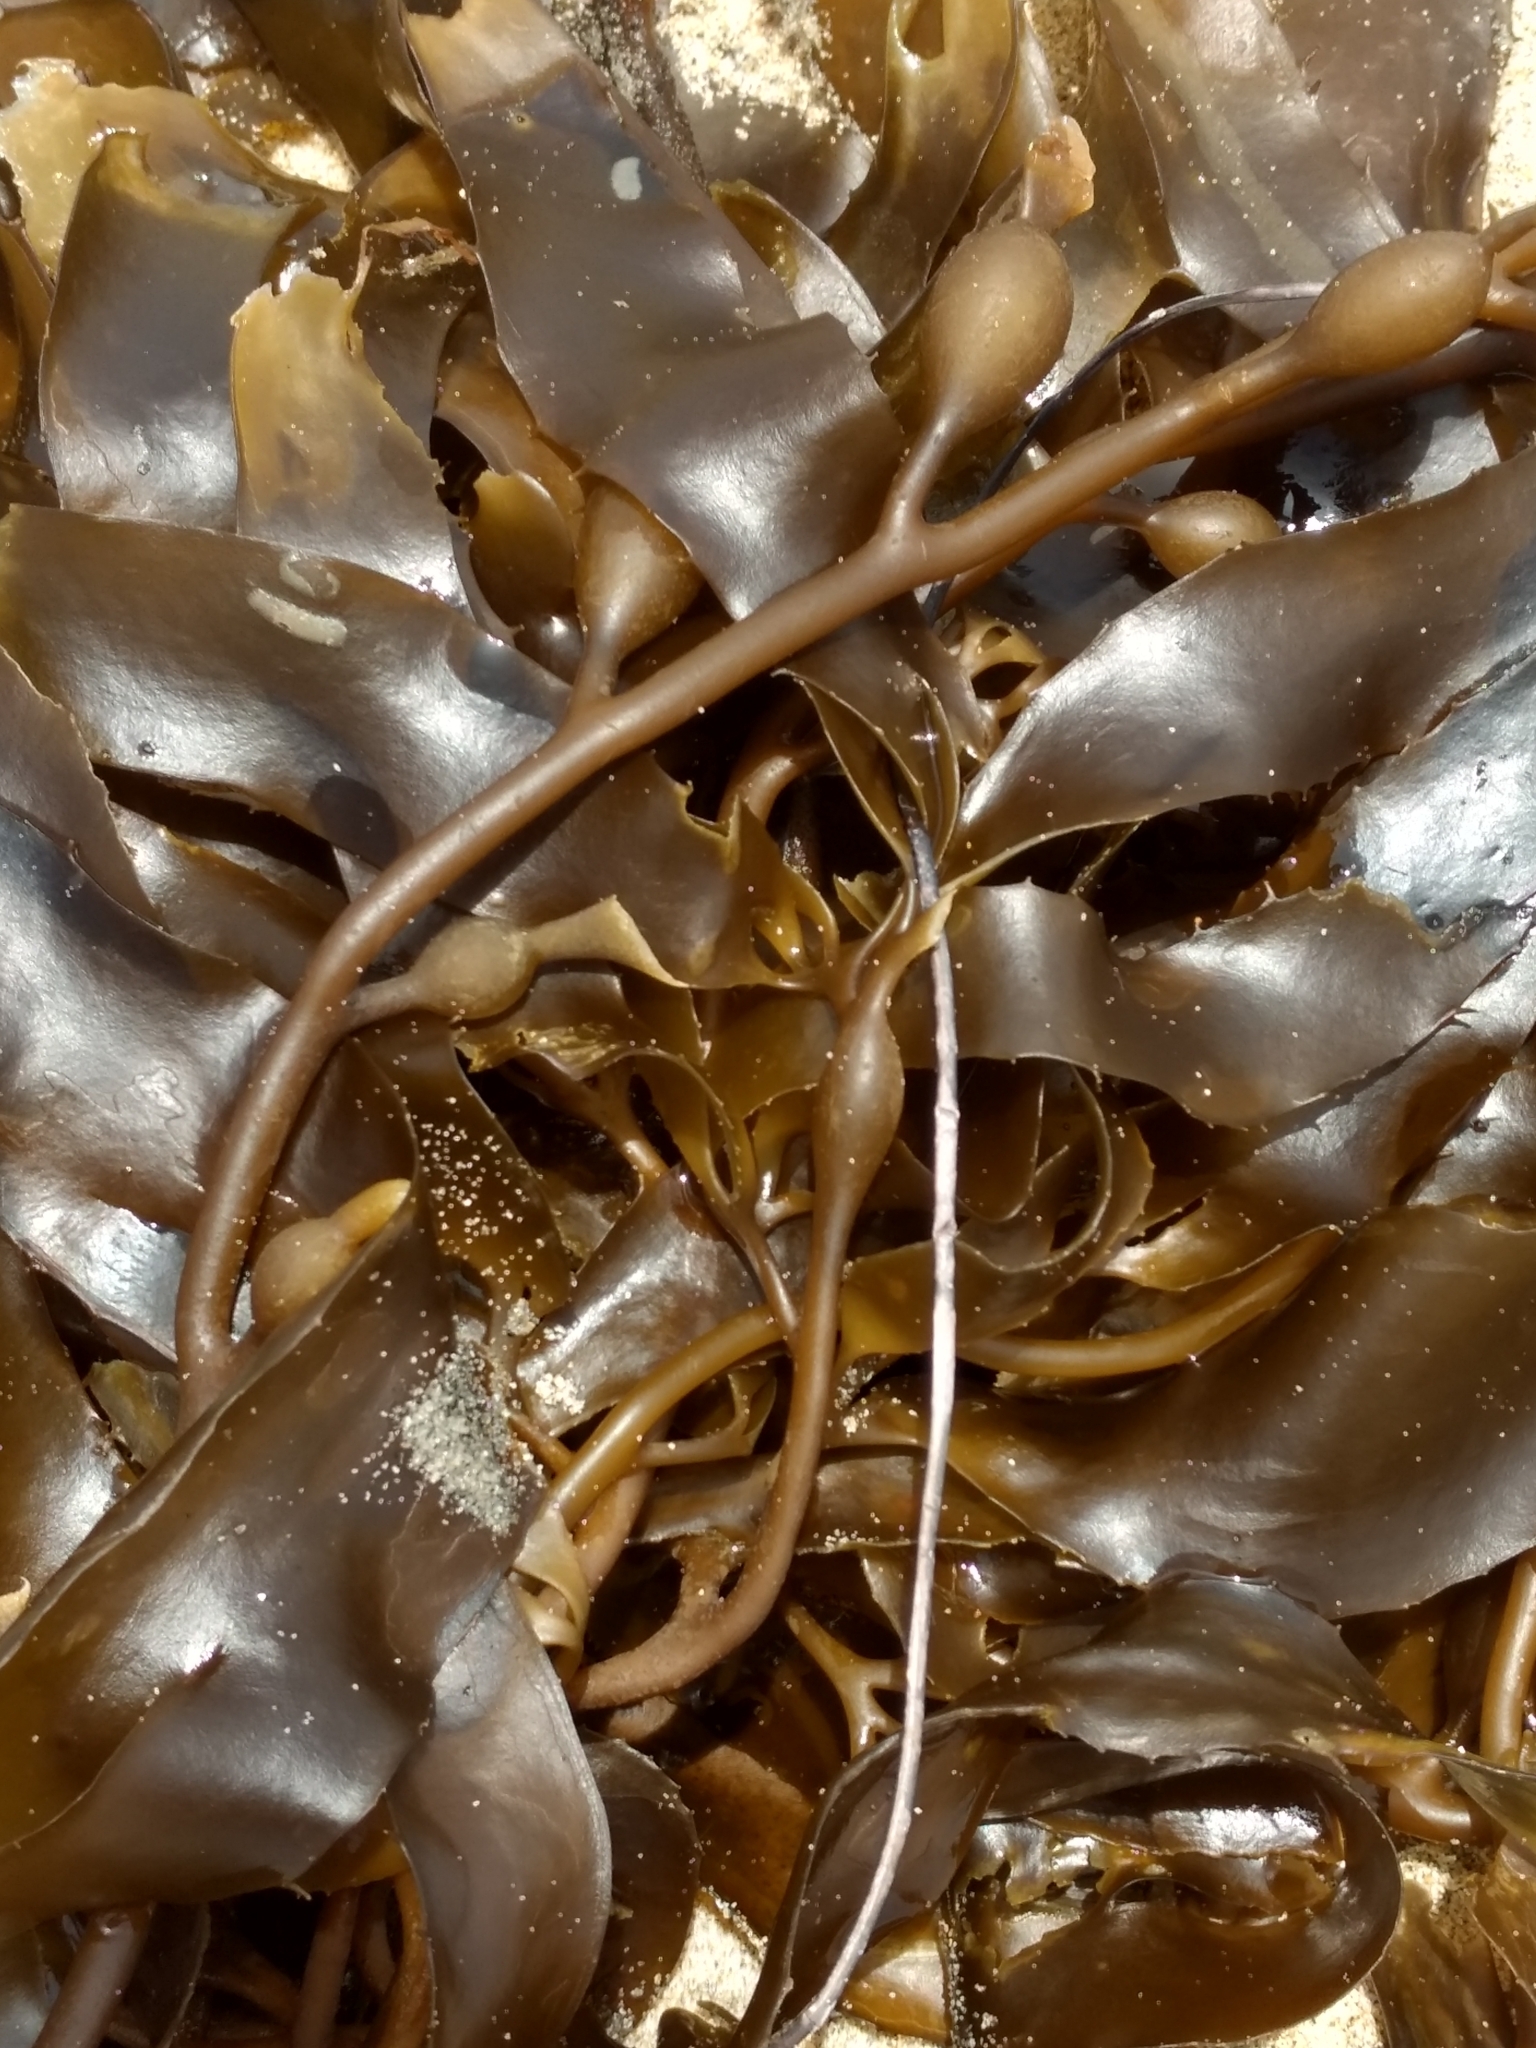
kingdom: Chromista
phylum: Ochrophyta
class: Phaeophyceae
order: Laminariales
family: Laminariaceae
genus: Macrocystis
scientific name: Macrocystis pyrifera
